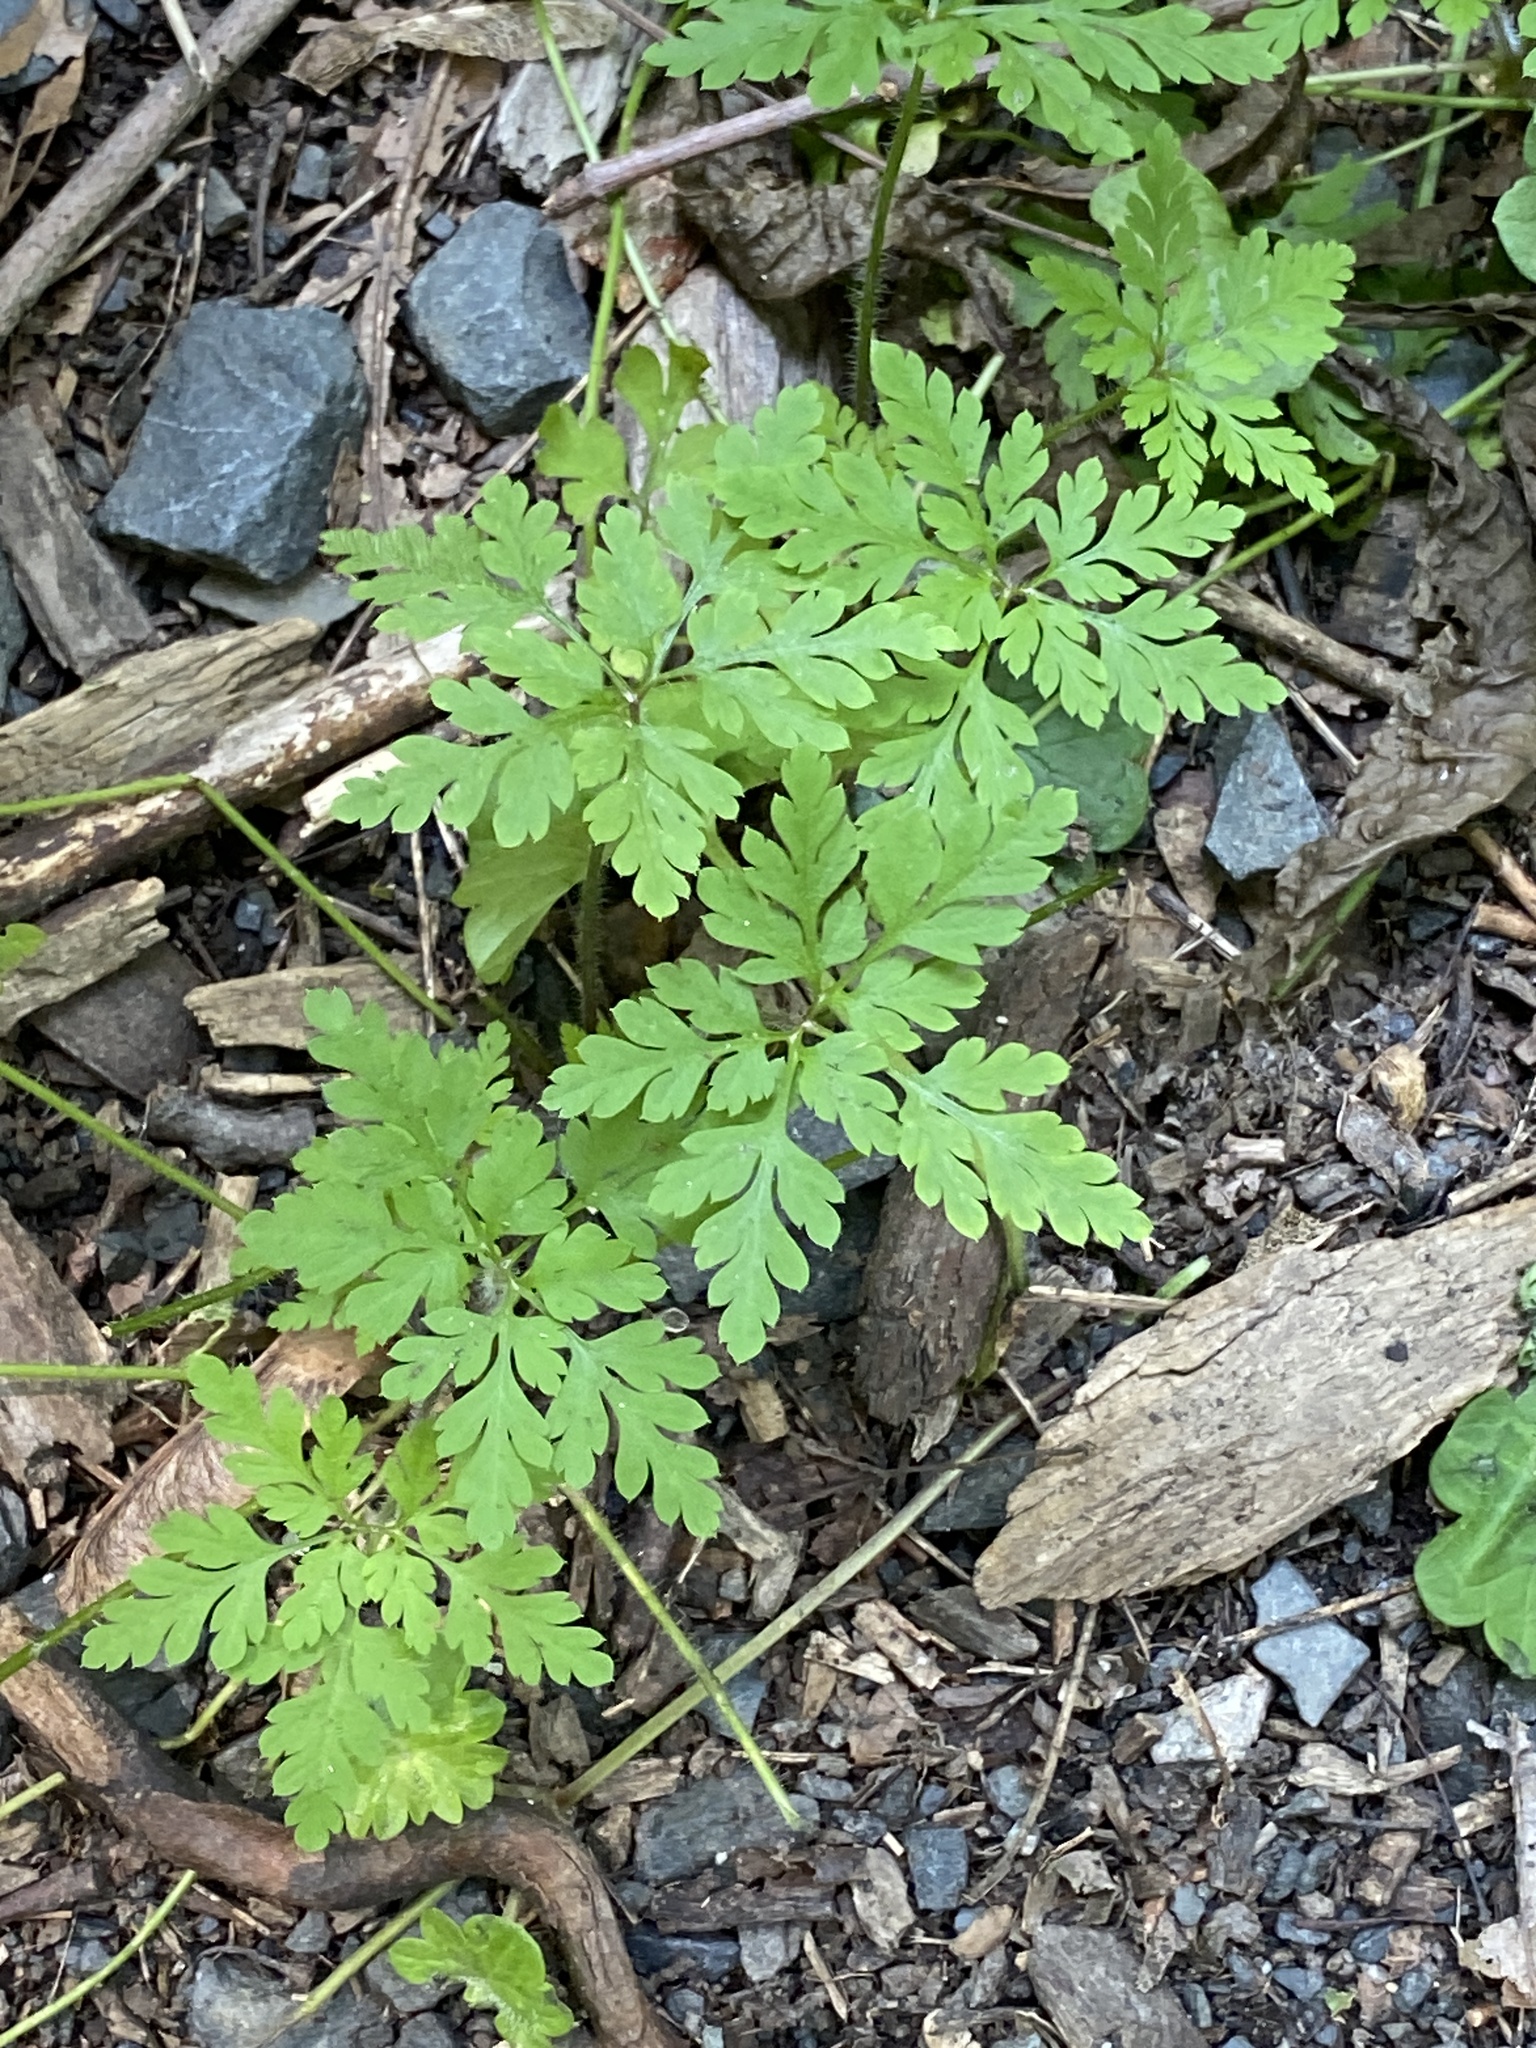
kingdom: Plantae
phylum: Tracheophyta
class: Magnoliopsida
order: Geraniales
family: Geraniaceae
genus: Geranium
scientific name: Geranium robertianum
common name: Herb-robert
